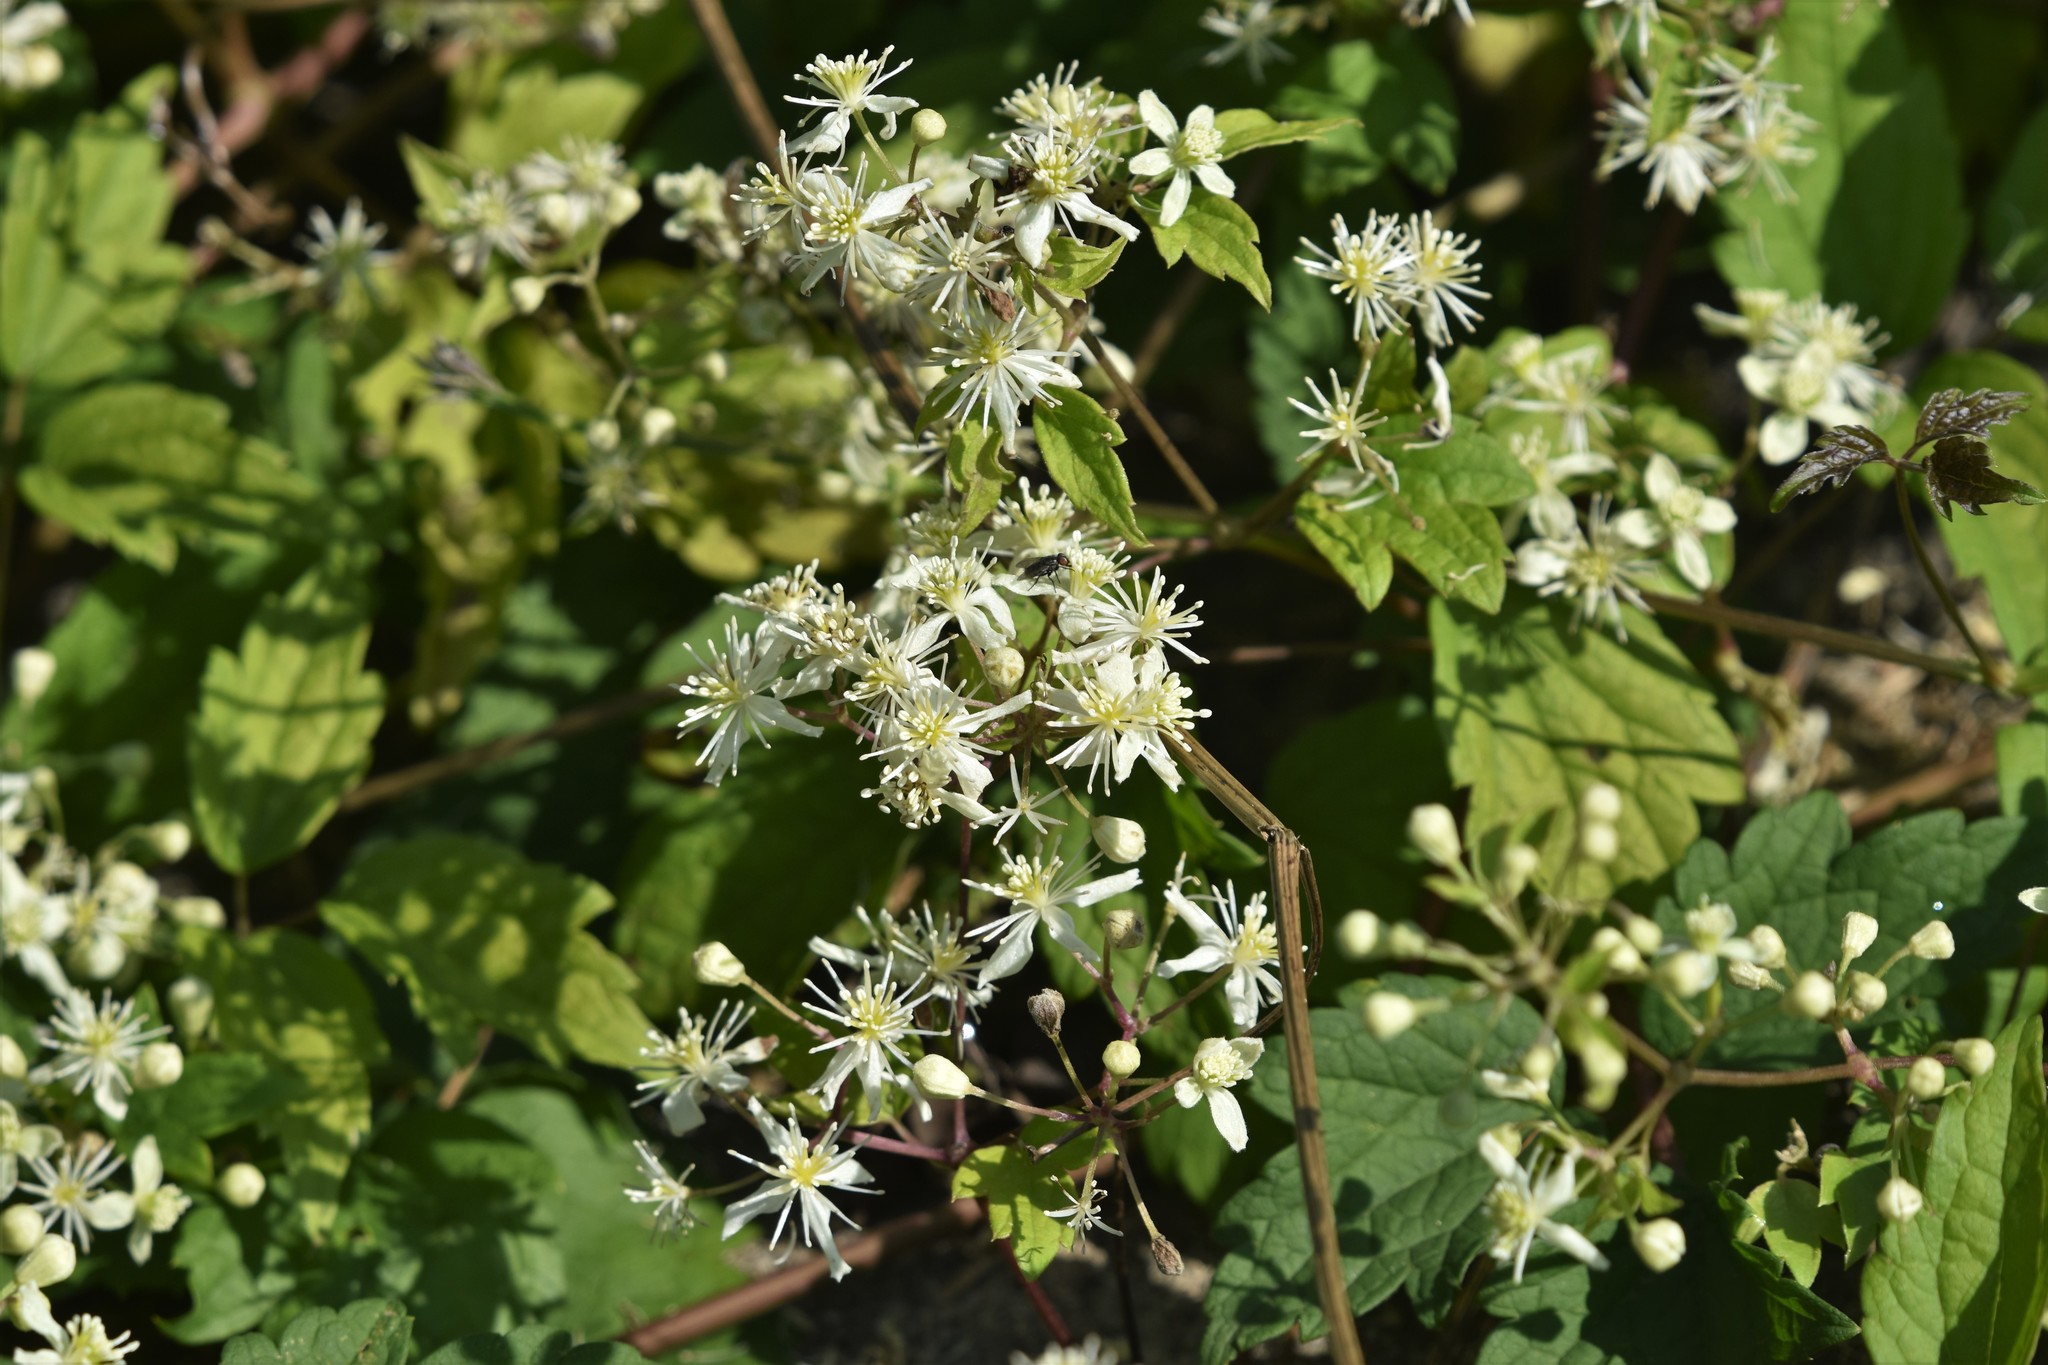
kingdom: Plantae
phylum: Tracheophyta
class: Magnoliopsida
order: Ranunculales
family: Ranunculaceae
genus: Clematis
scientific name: Clematis virginiana
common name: Virgin's-bower
